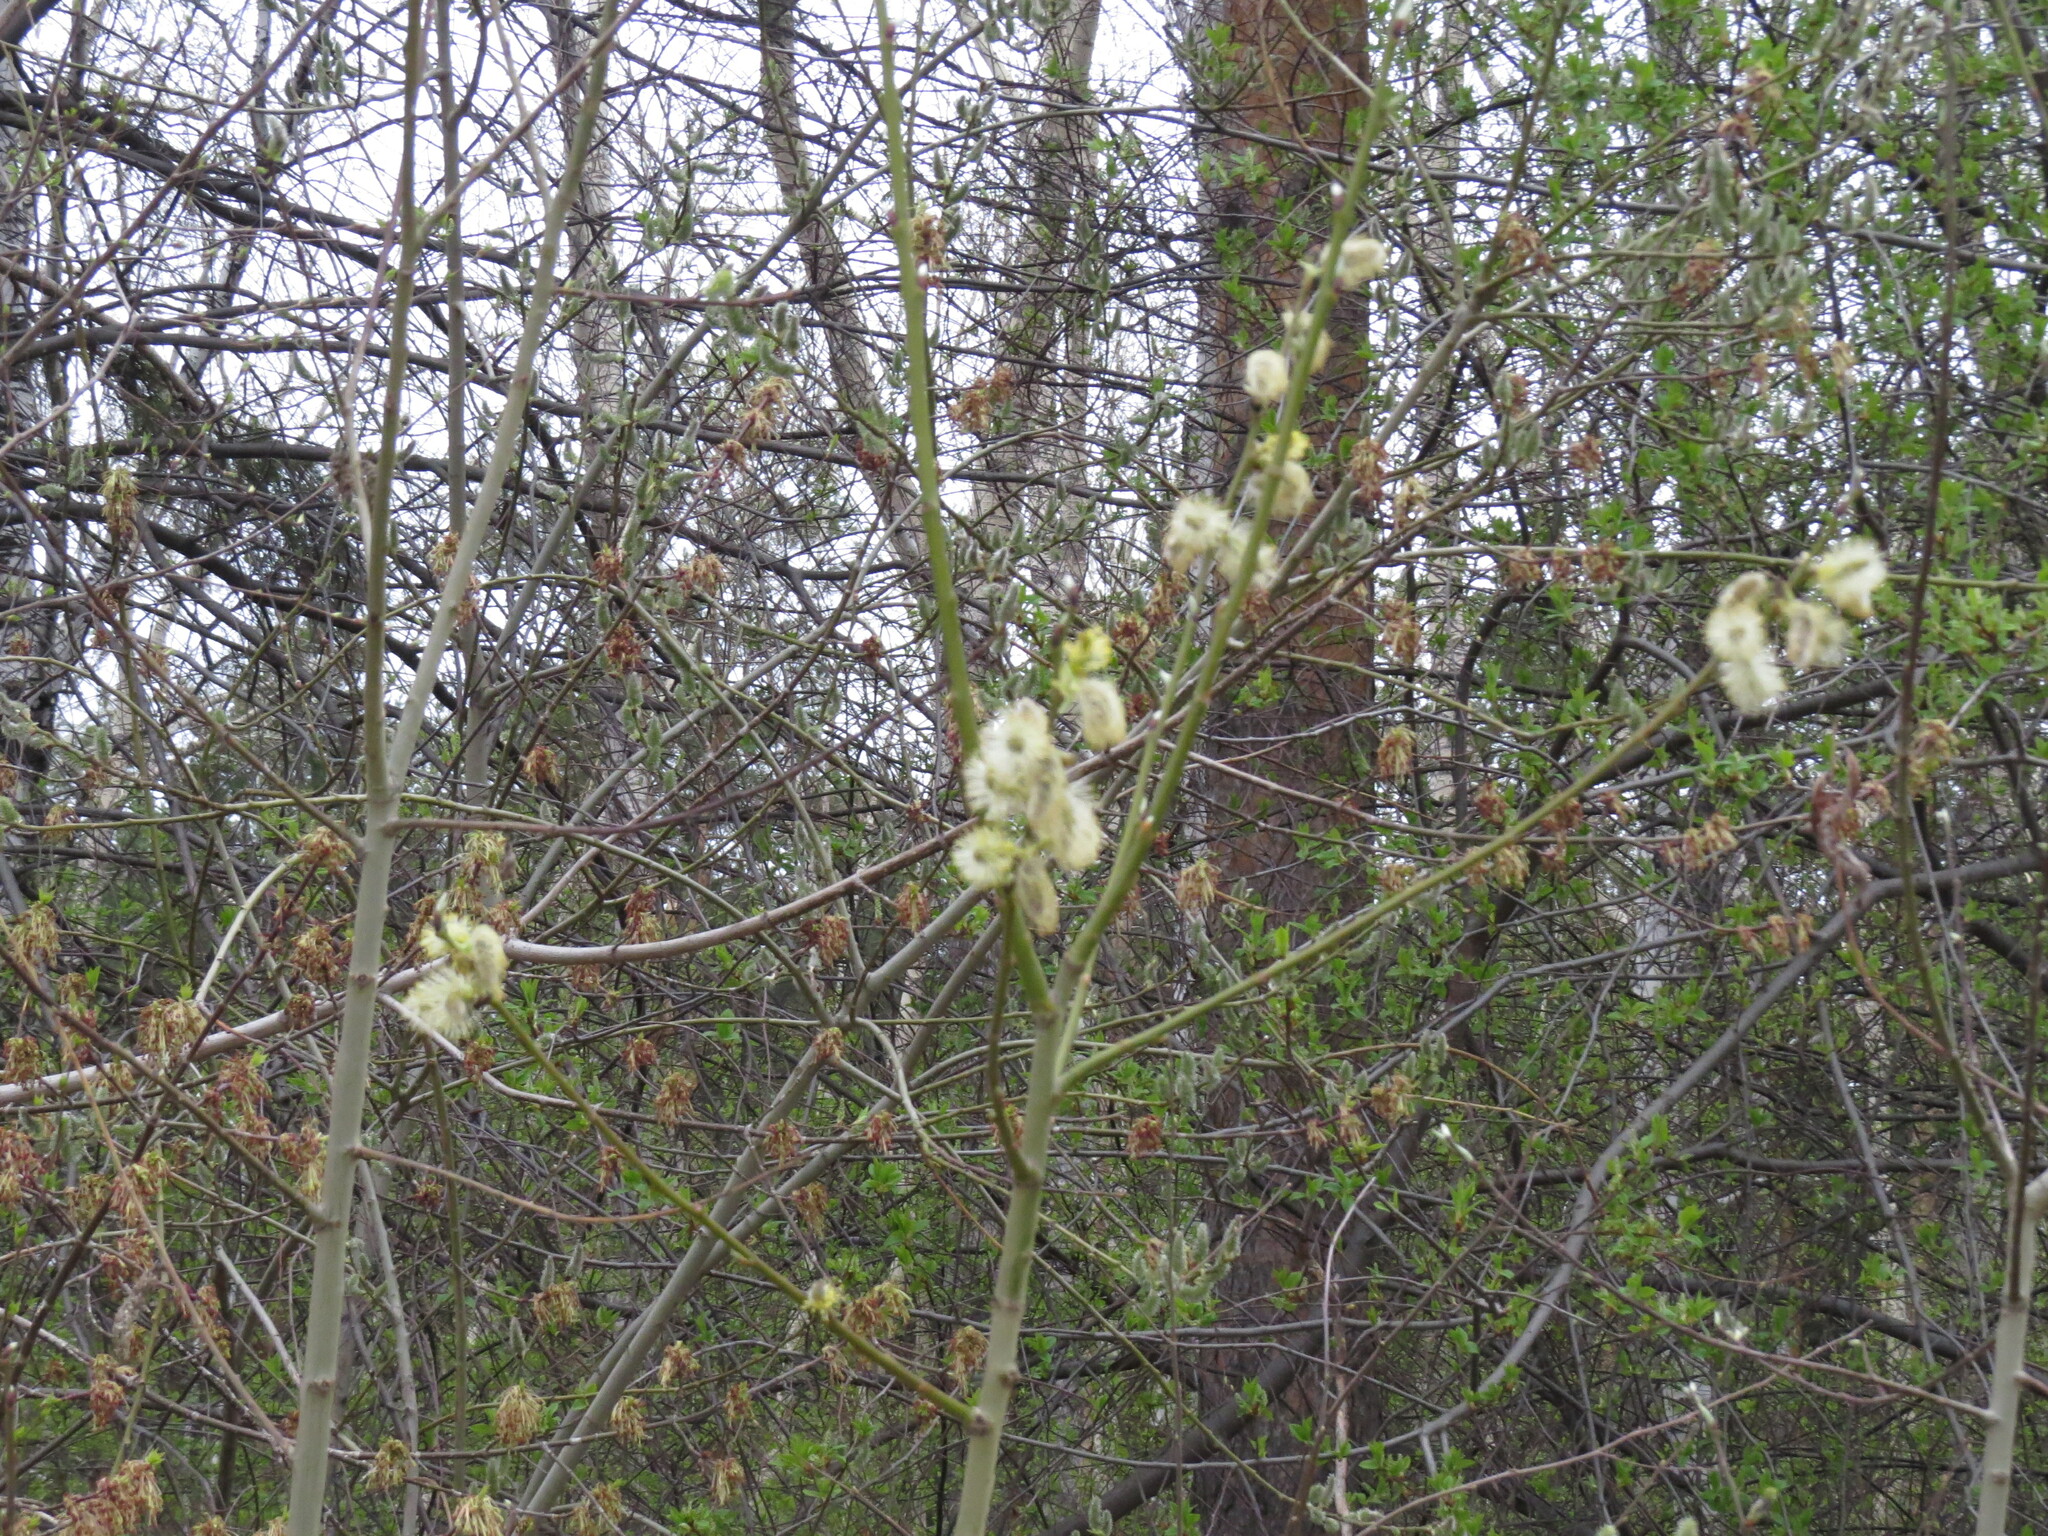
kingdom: Plantae
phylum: Tracheophyta
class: Magnoliopsida
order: Malpighiales
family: Salicaceae
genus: Salix
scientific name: Salix
